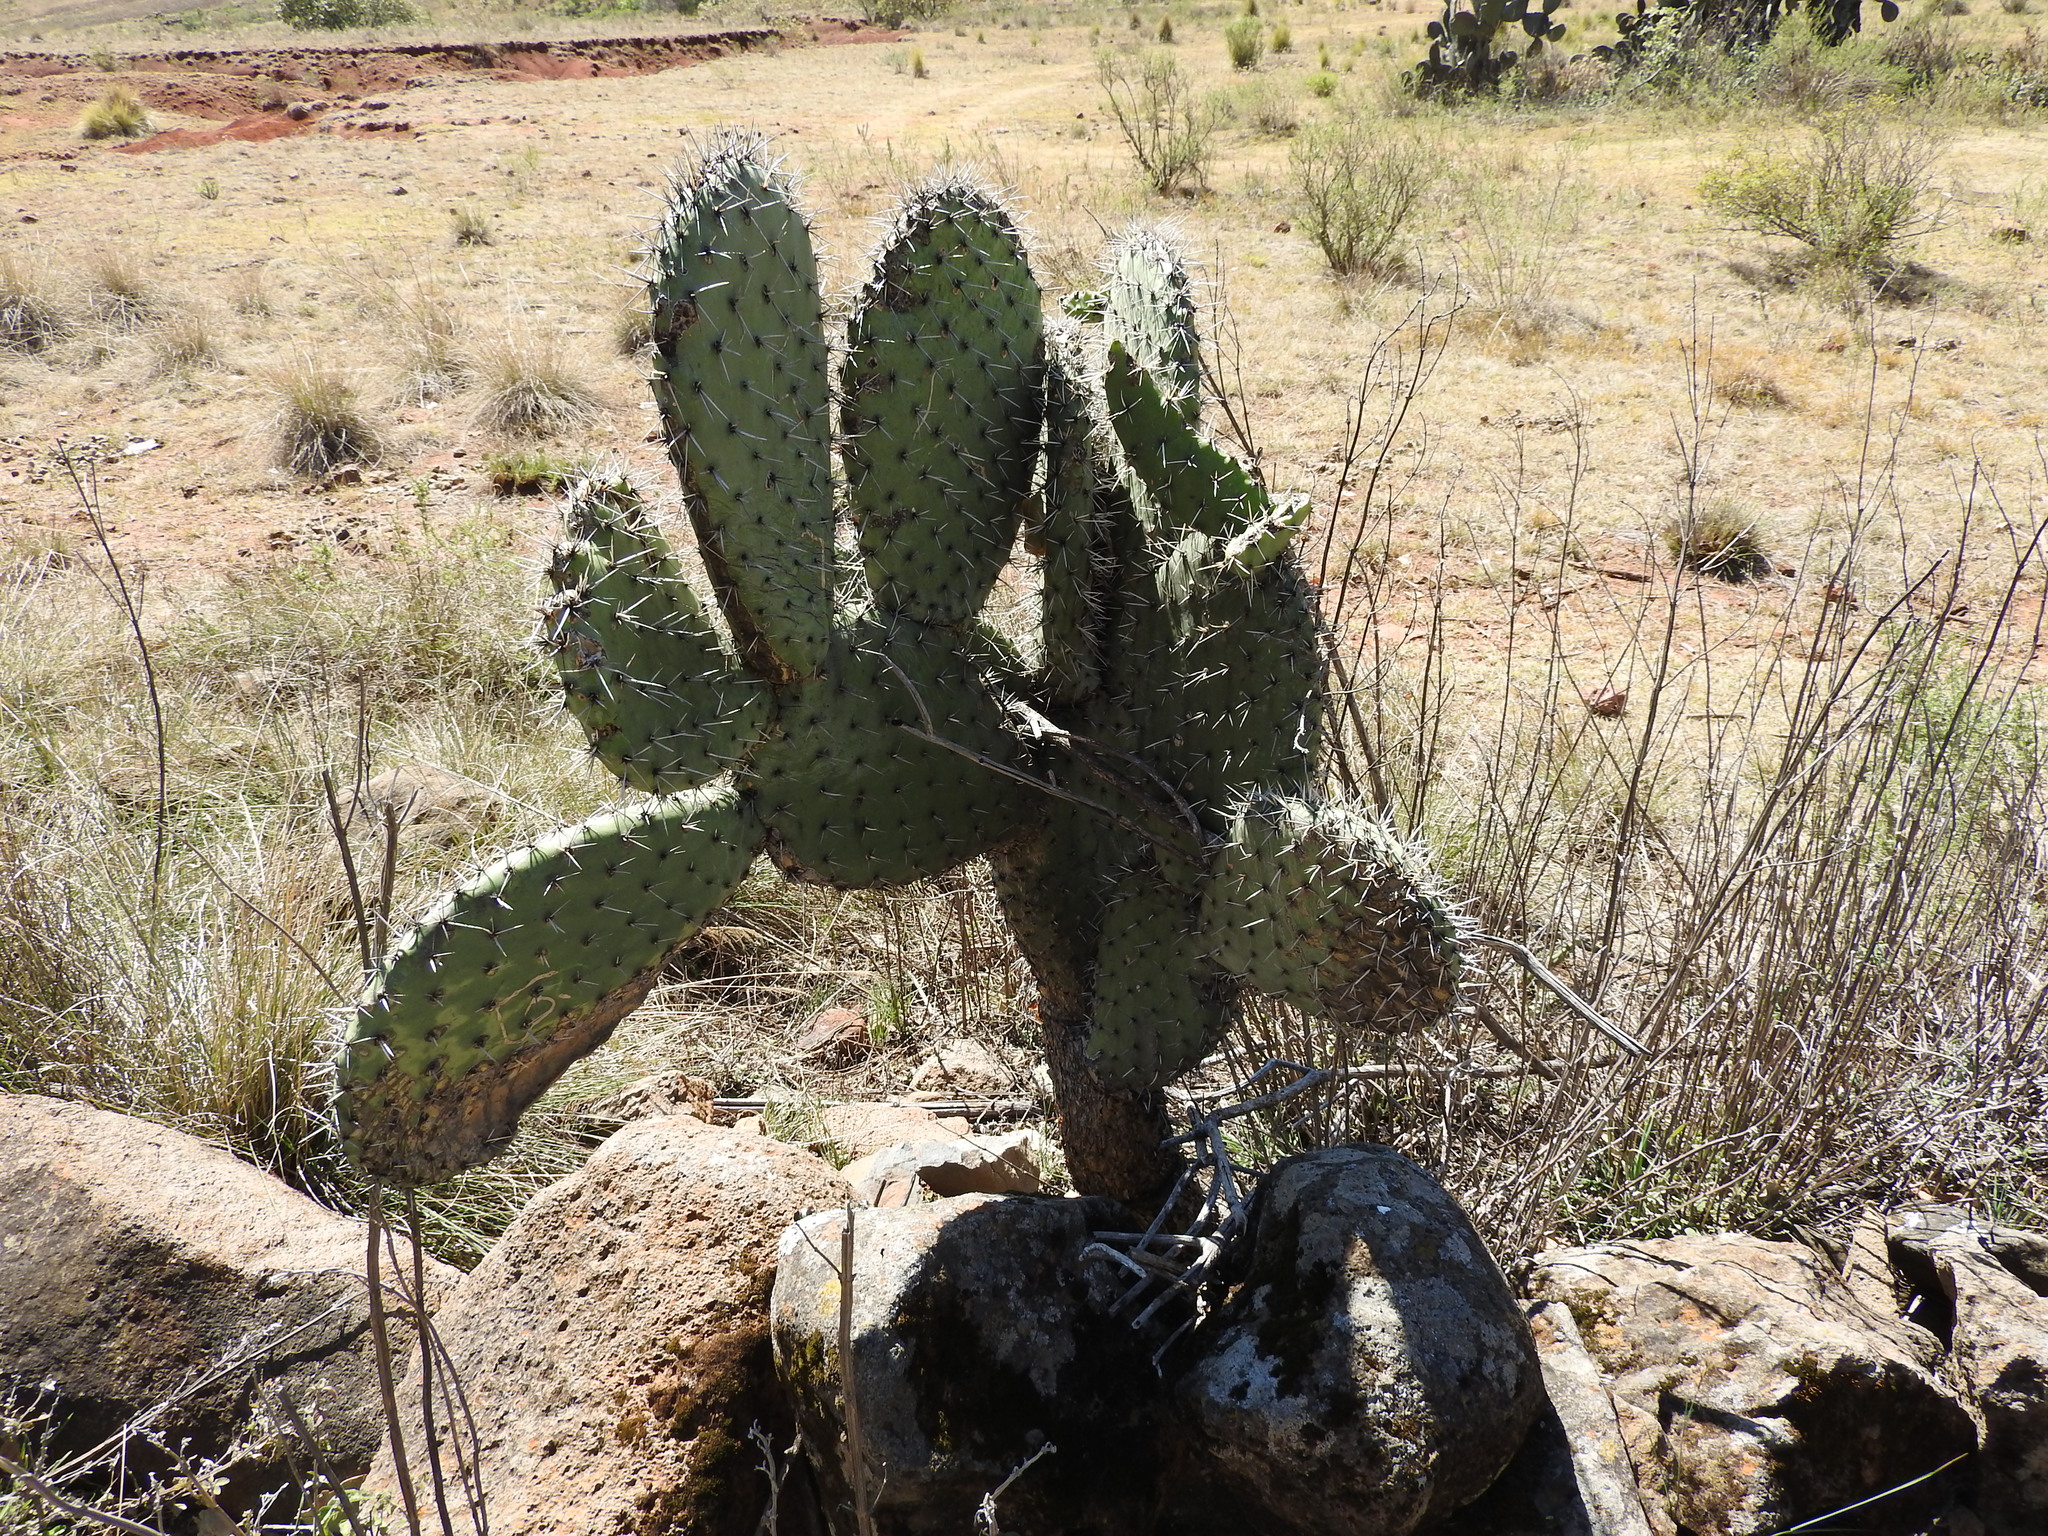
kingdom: Plantae
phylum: Tracheophyta
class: Magnoliopsida
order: Caryophyllales
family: Cactaceae
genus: Opuntia
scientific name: Opuntia streptacantha
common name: Gracemere-pear
